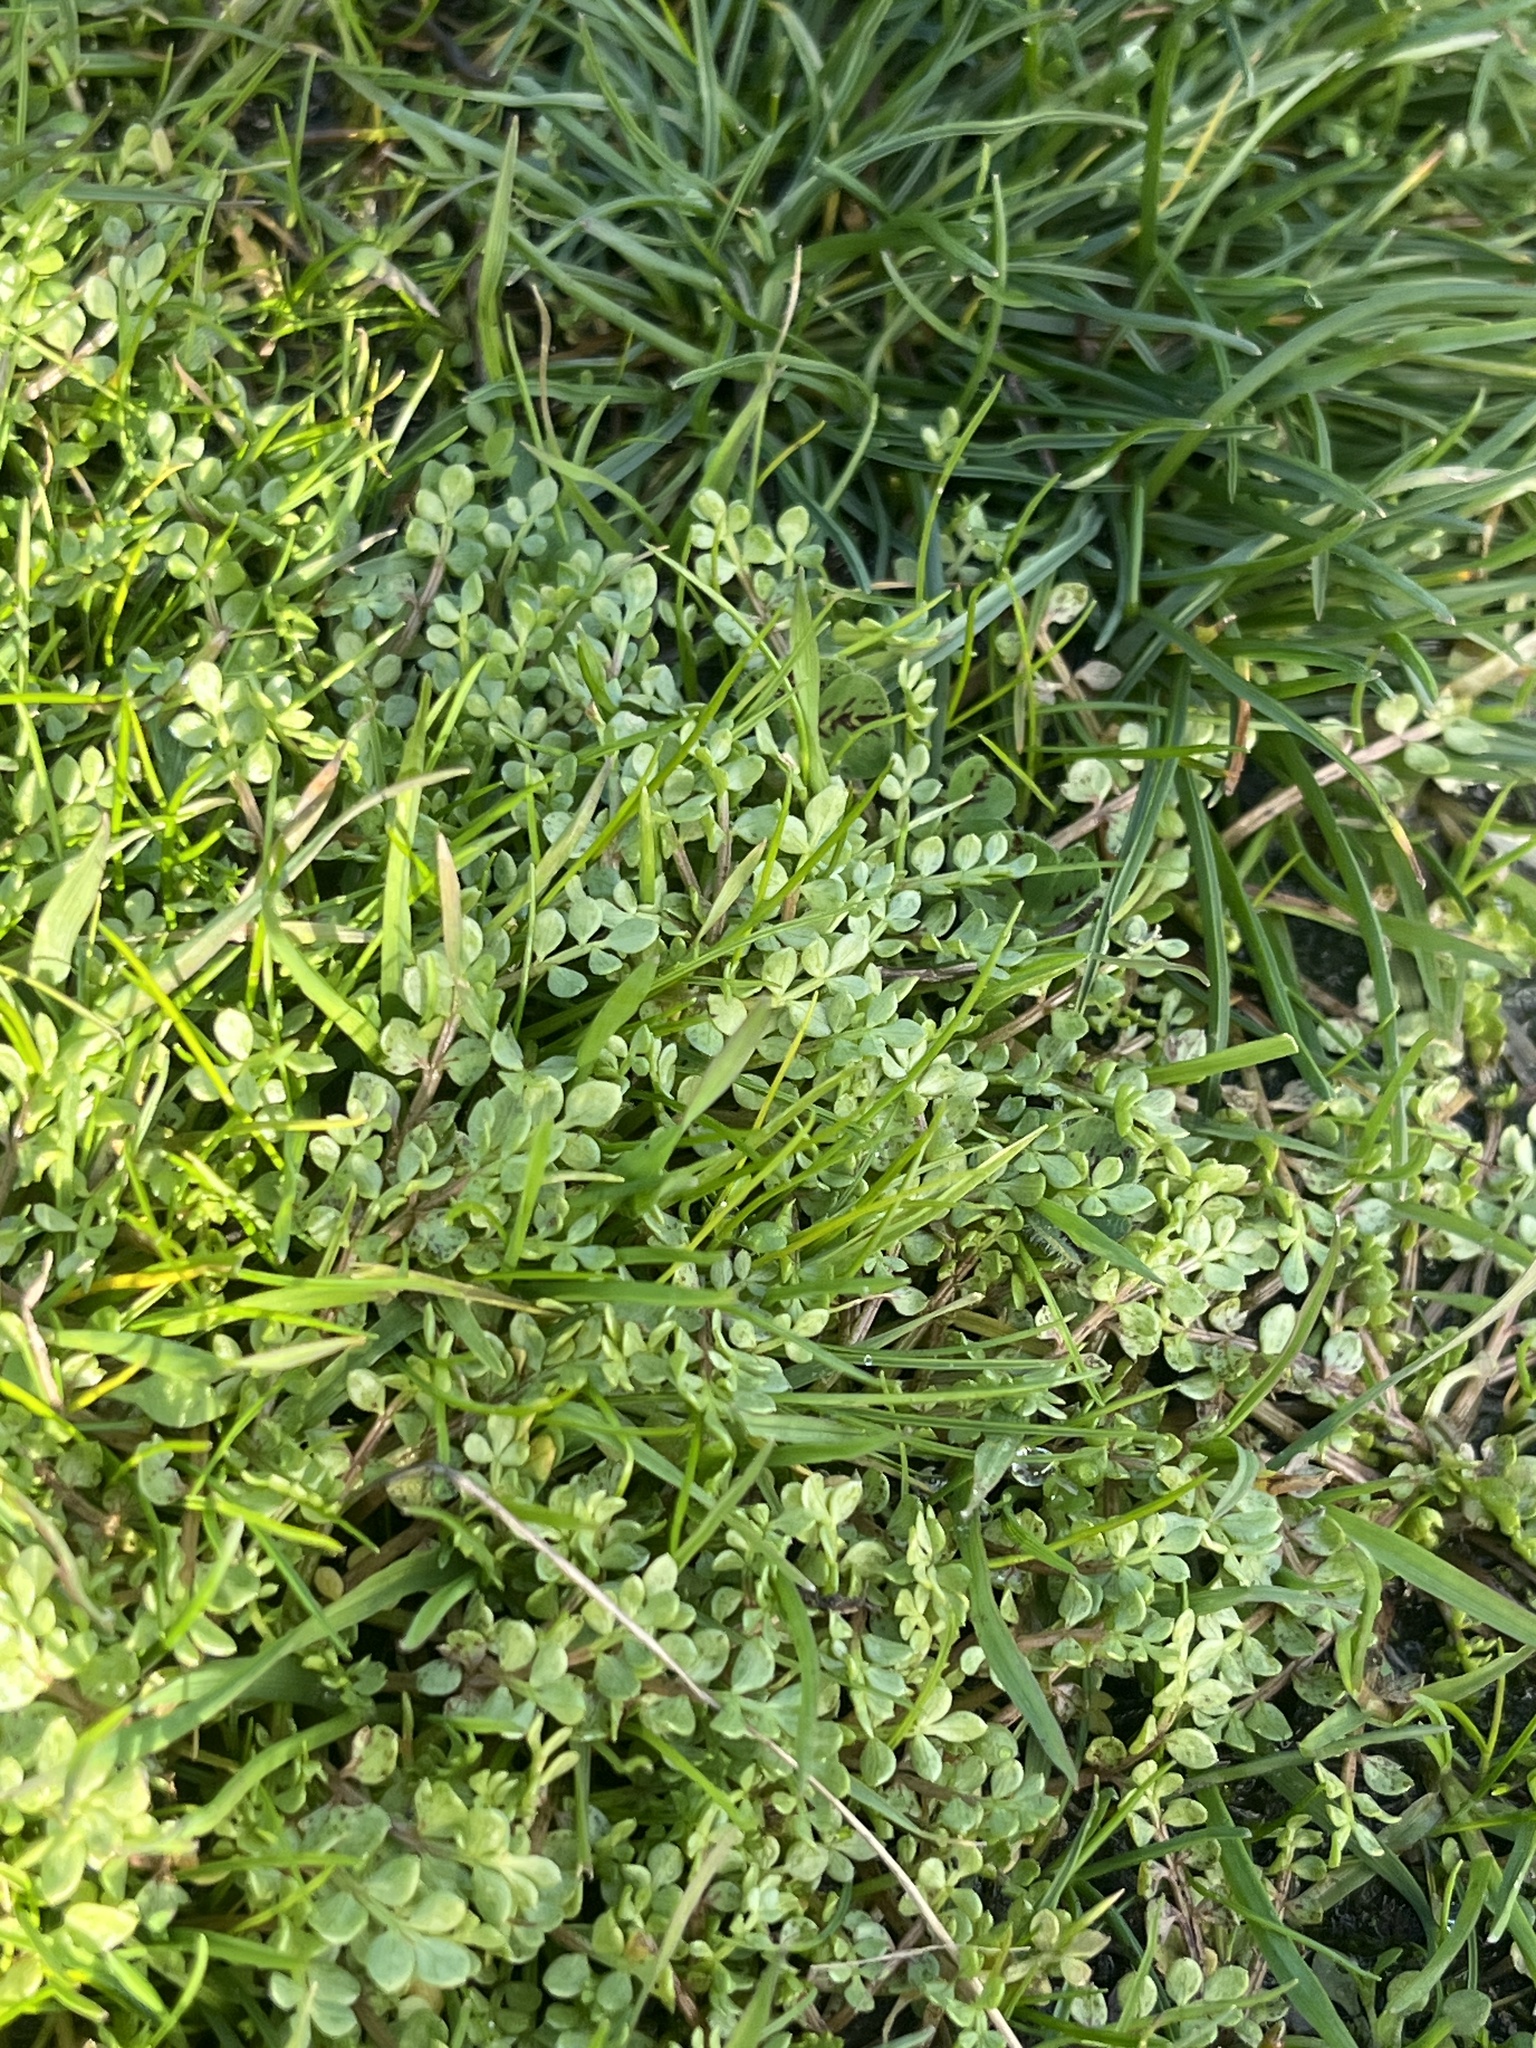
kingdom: Plantae
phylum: Tracheophyta
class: Magnoliopsida
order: Brassicales
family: Limnanthaceae
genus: Limnanthes
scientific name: Limnanthes macounii
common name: Macoun's meadowfoam
